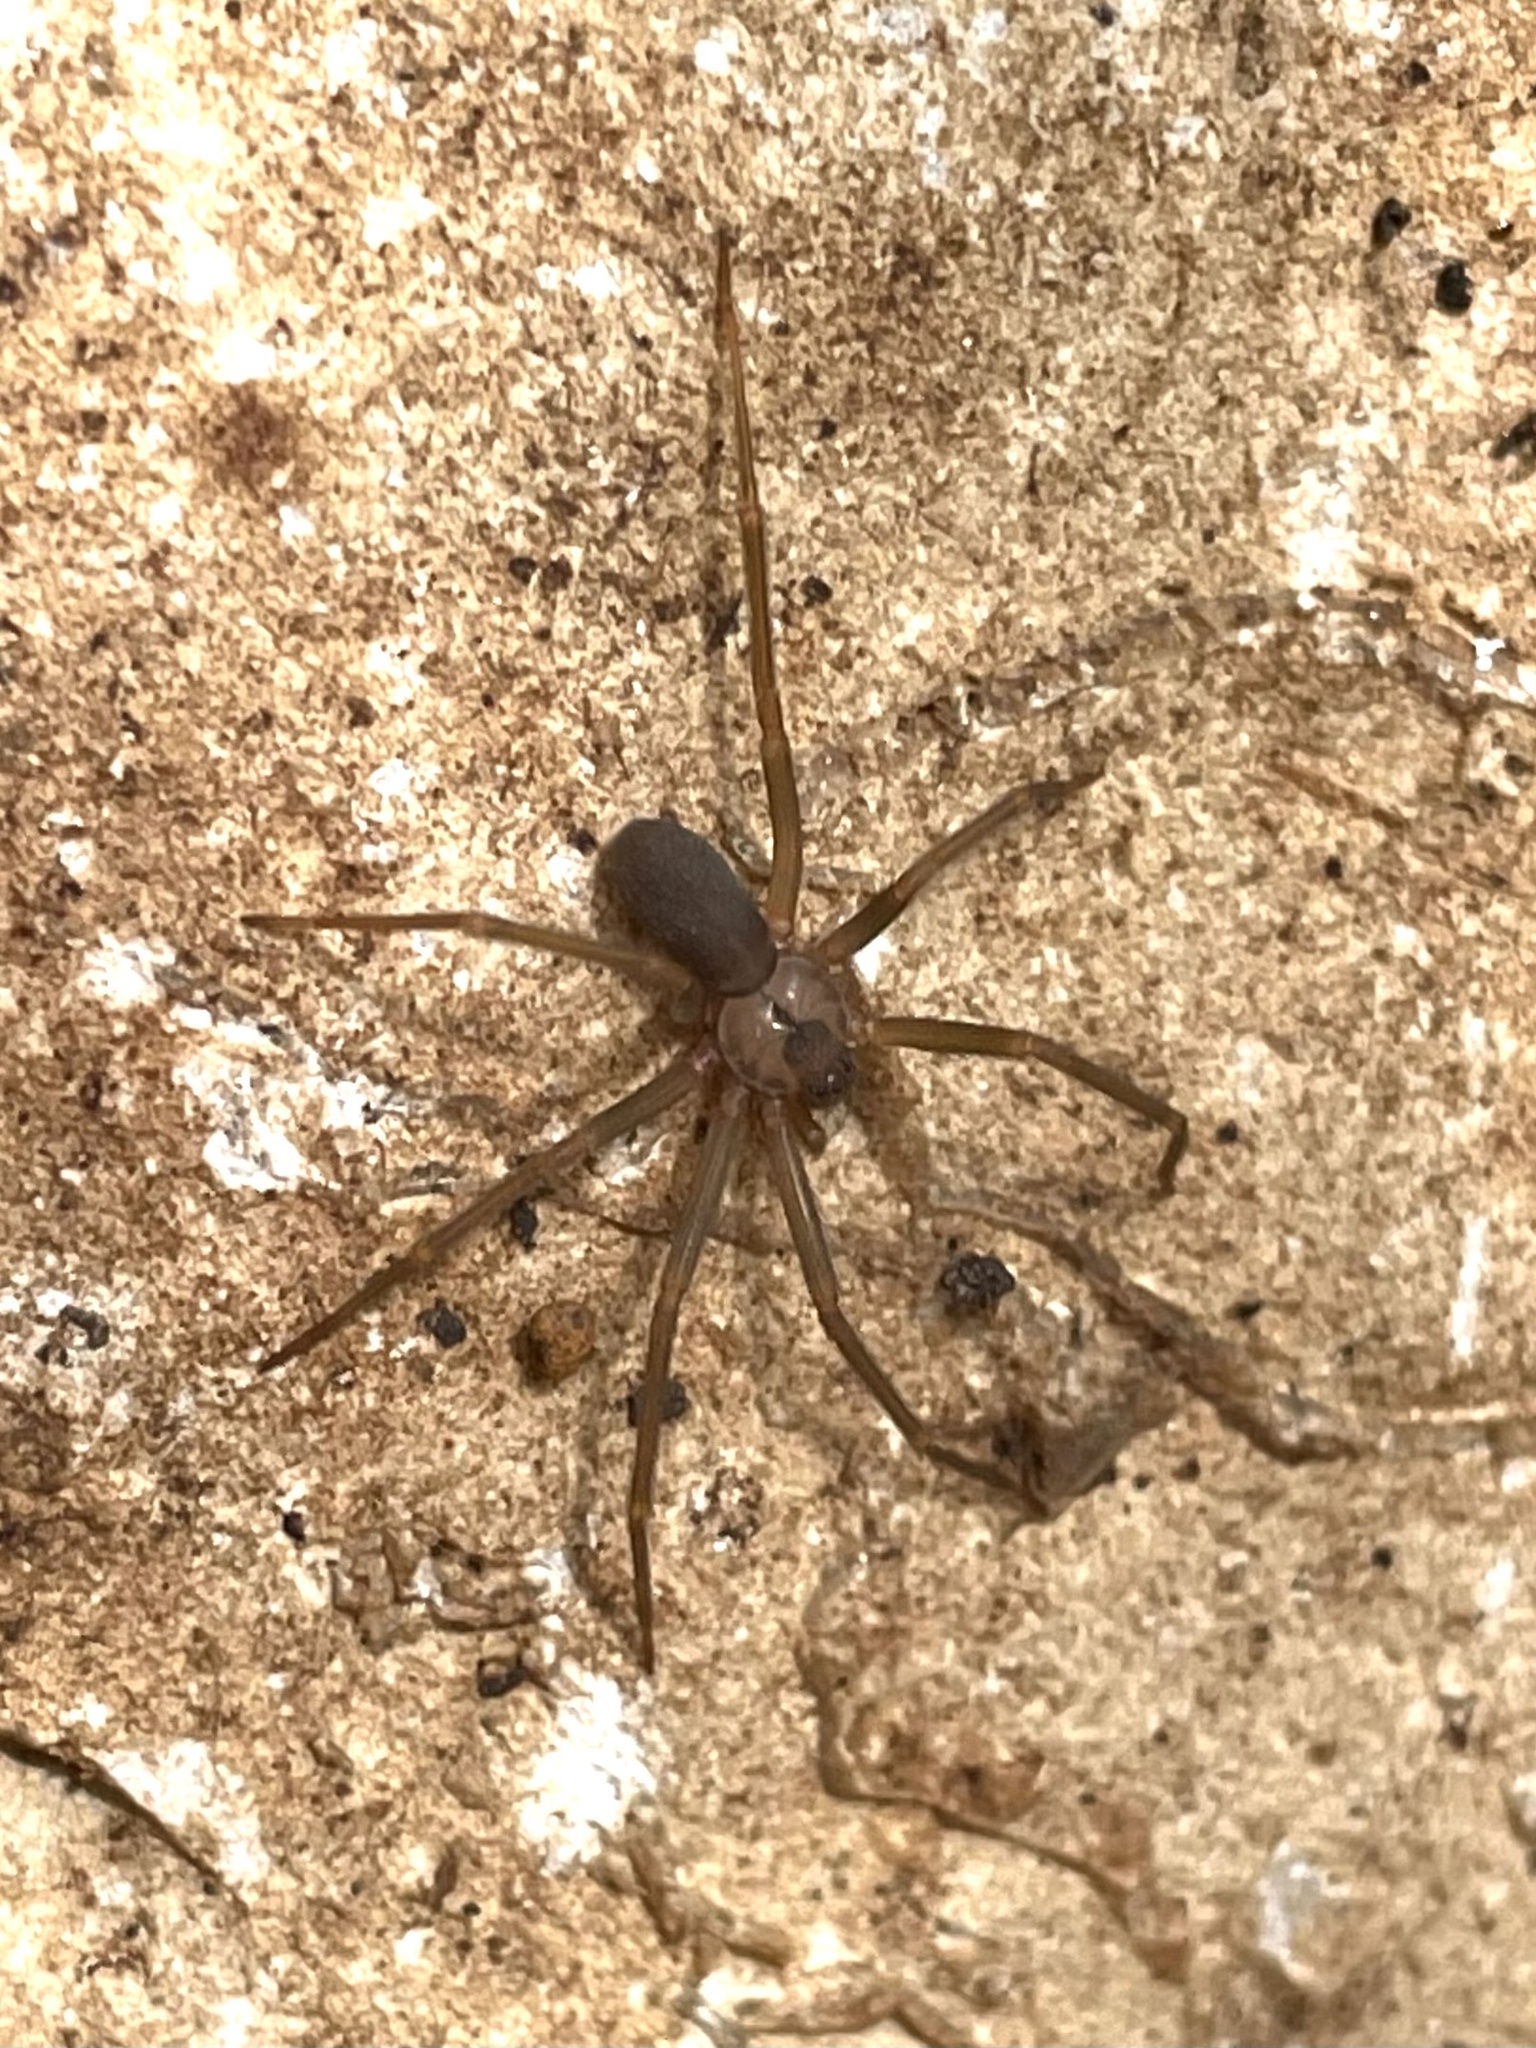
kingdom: Animalia
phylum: Arthropoda
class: Arachnida
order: Araneae
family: Sicariidae
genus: Loxosceles
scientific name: Loxosceles reclusa
